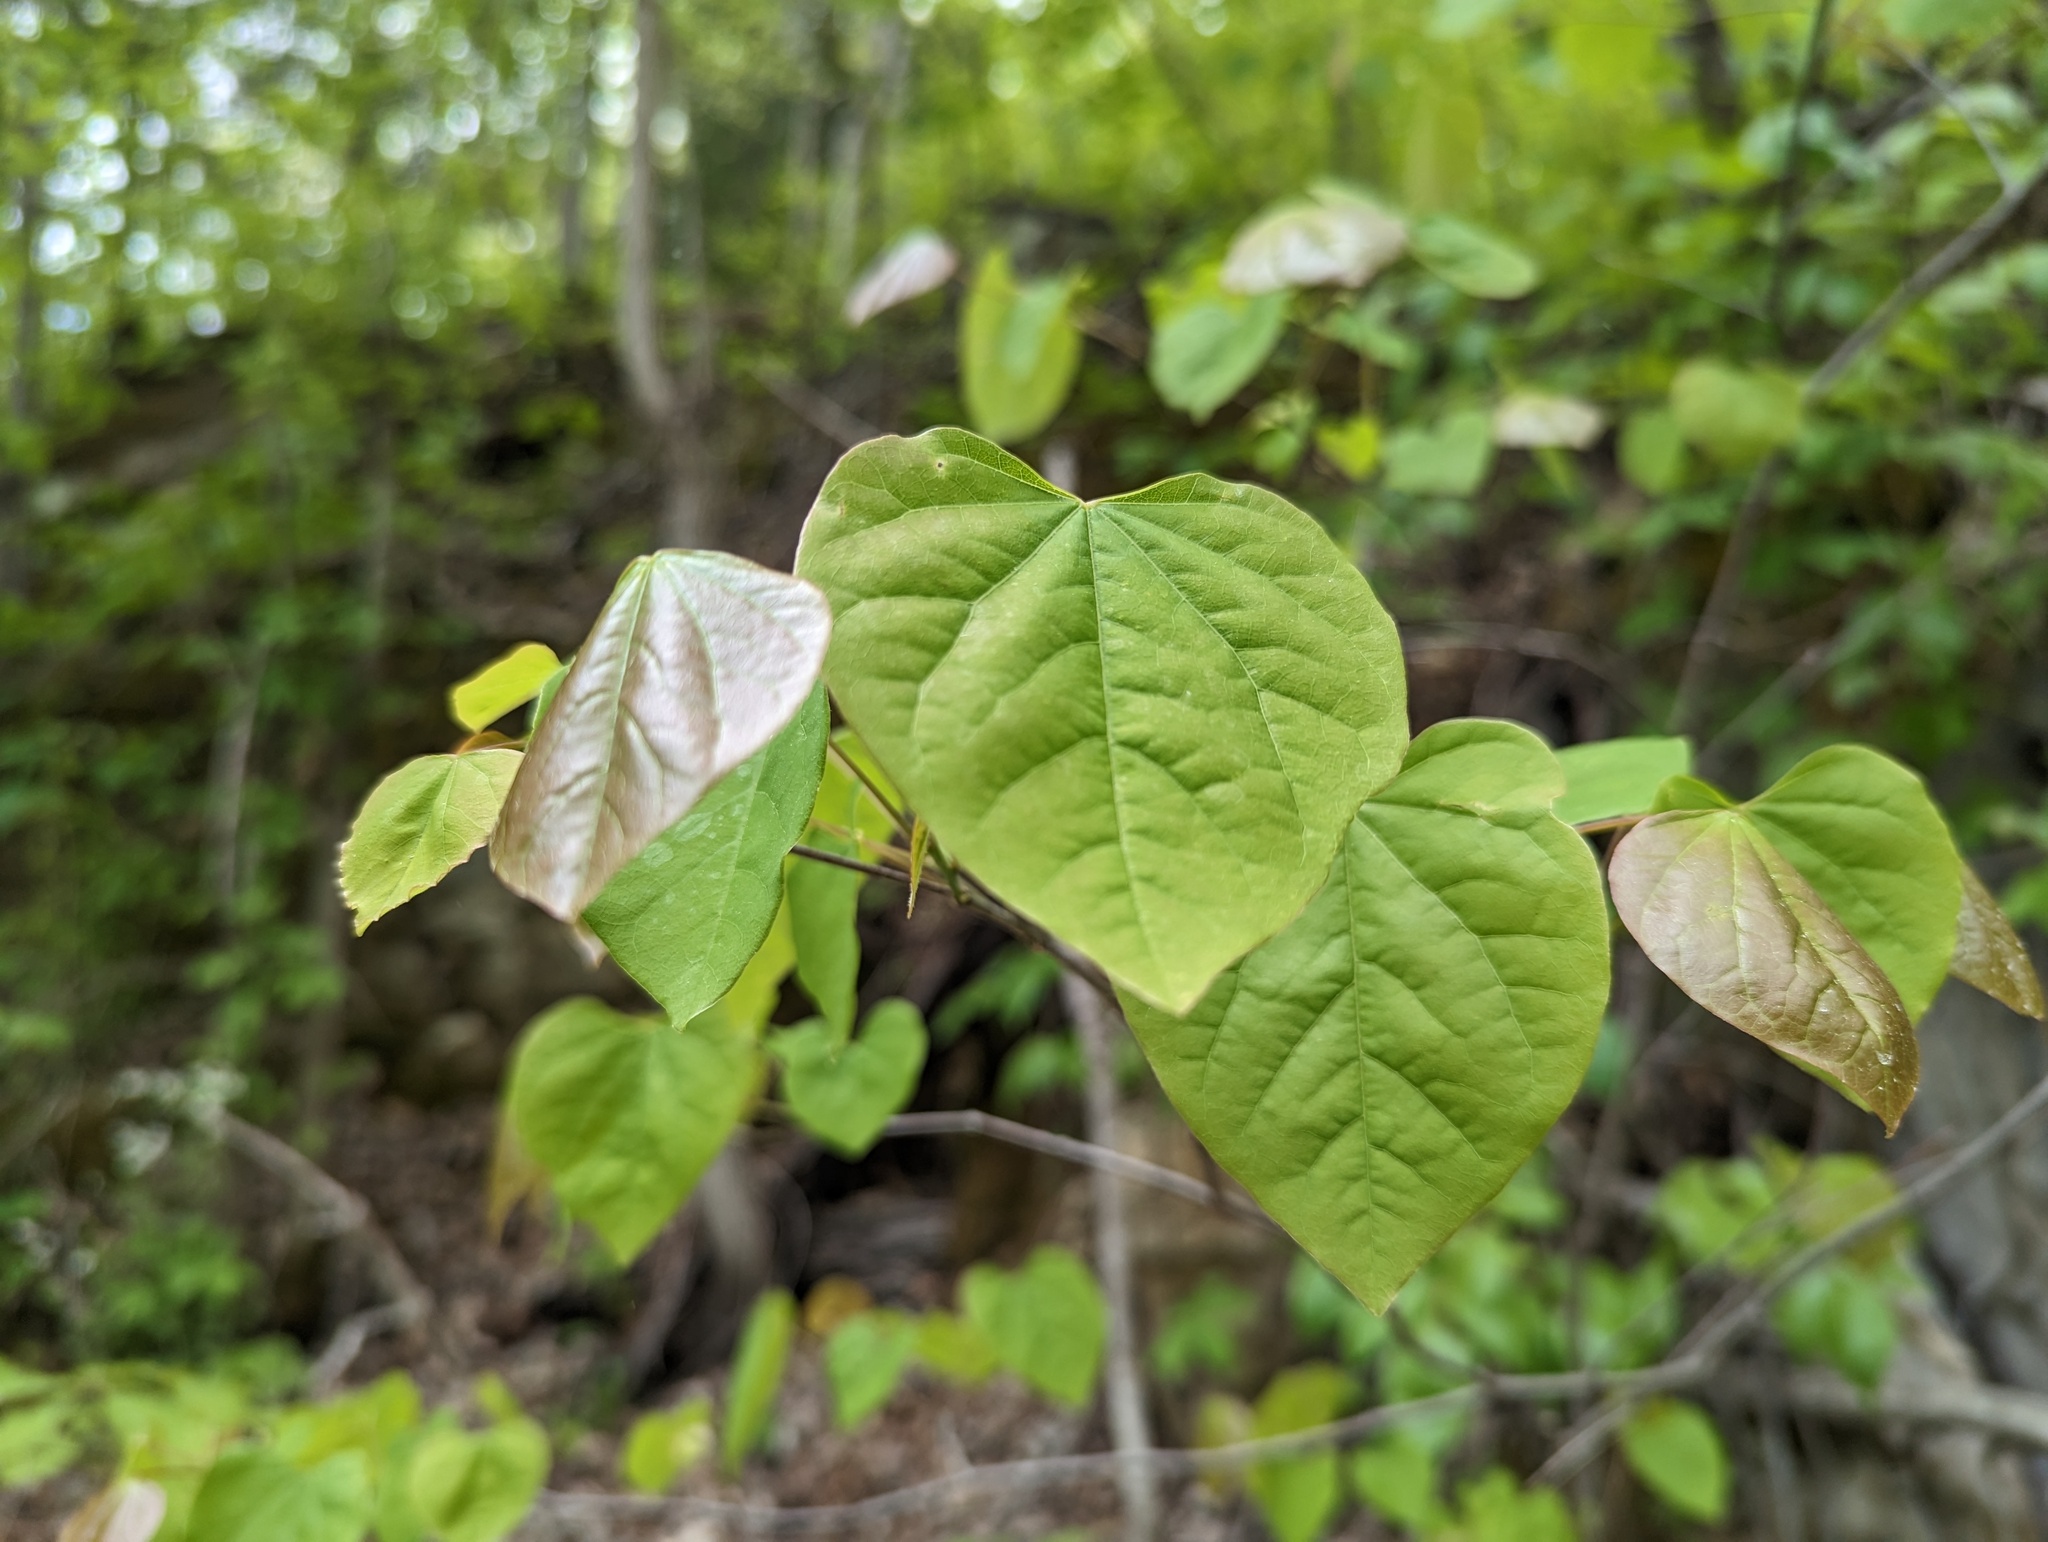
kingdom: Plantae
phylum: Tracheophyta
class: Magnoliopsida
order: Fabales
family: Fabaceae
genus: Cercis
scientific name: Cercis canadensis
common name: Eastern redbud
